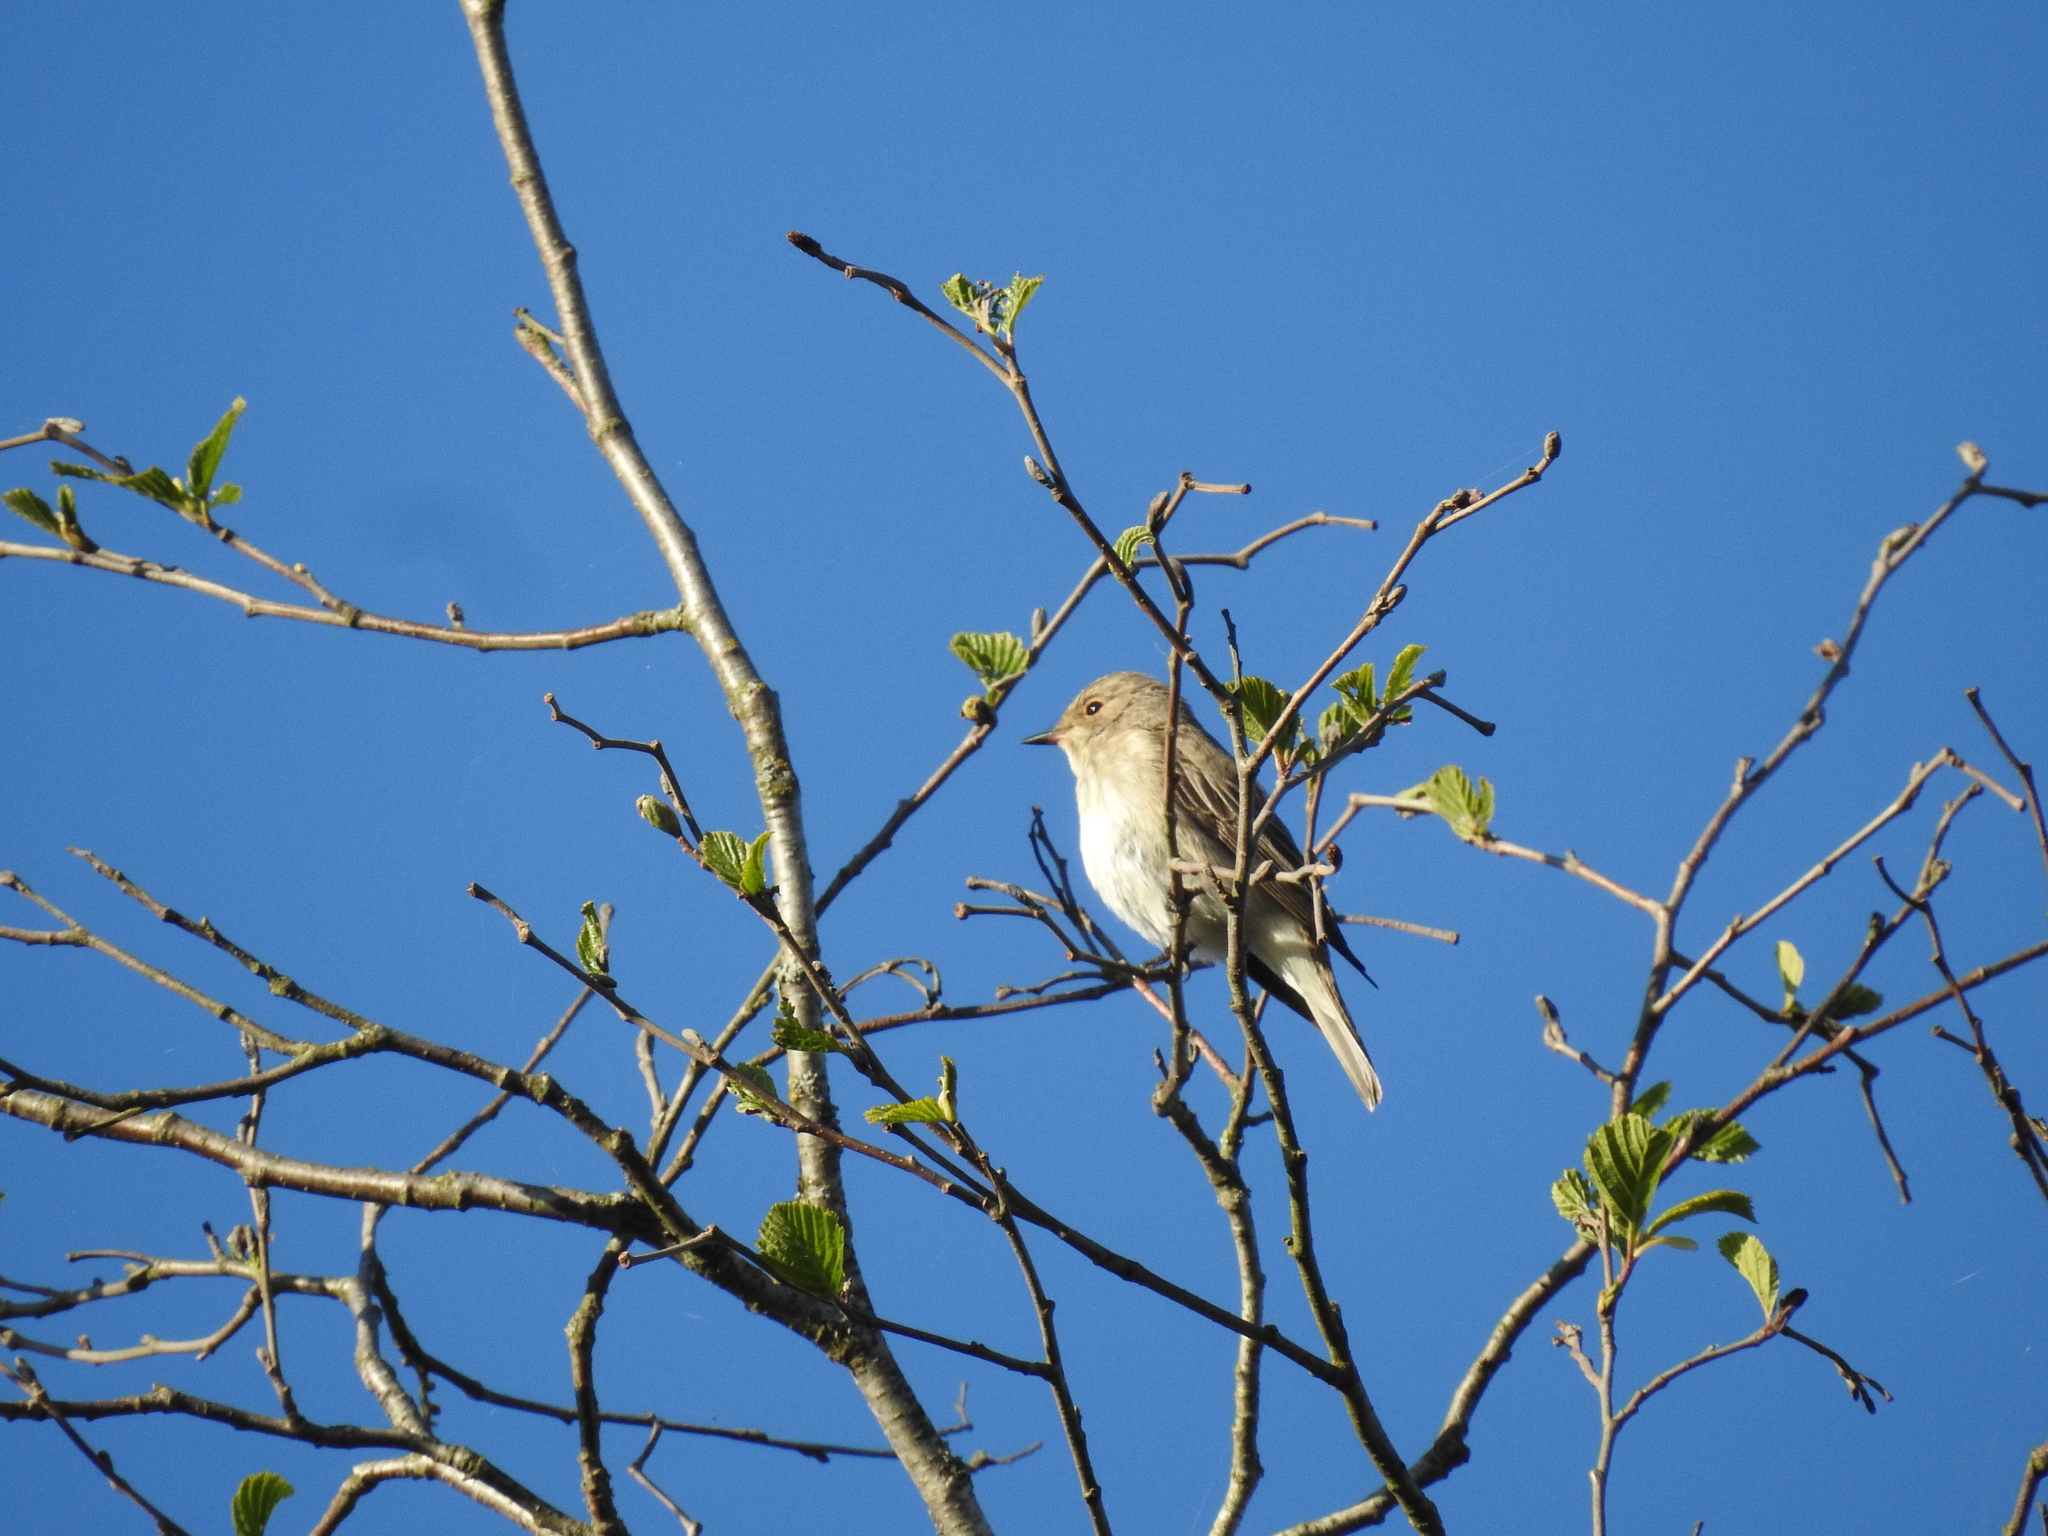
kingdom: Animalia
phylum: Chordata
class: Aves
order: Passeriformes
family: Muscicapidae
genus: Muscicapa
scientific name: Muscicapa striata
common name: Spotted flycatcher
